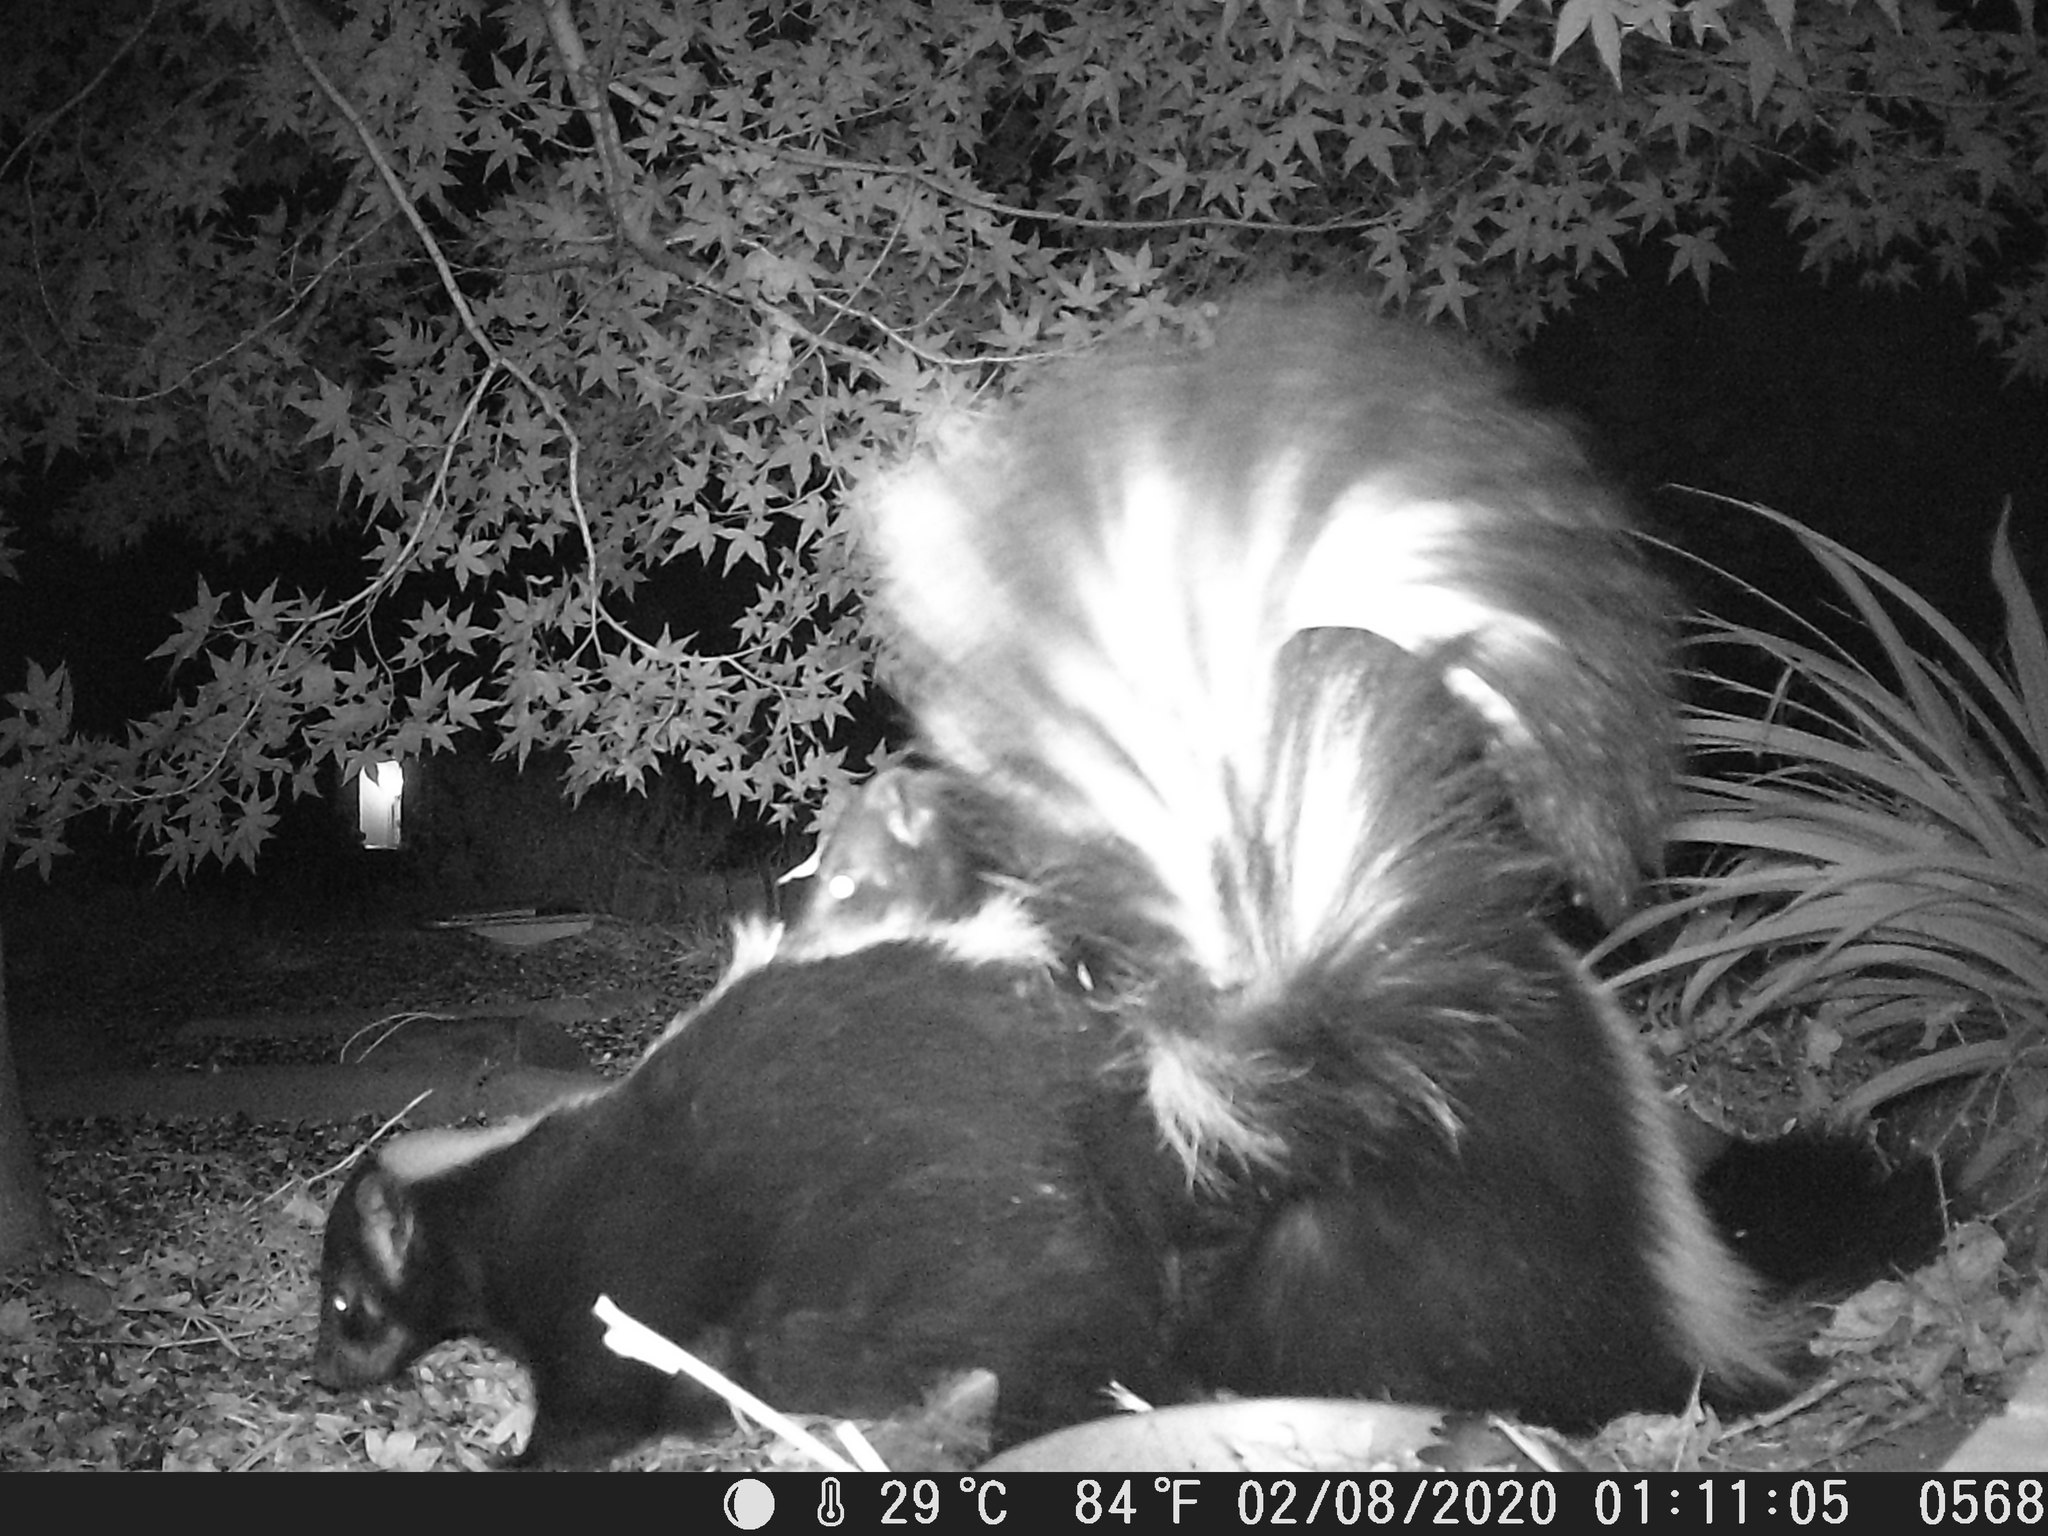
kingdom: Animalia
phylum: Chordata
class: Mammalia
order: Carnivora
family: Mephitidae
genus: Mephitis
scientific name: Mephitis mephitis
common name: Striped skunk
